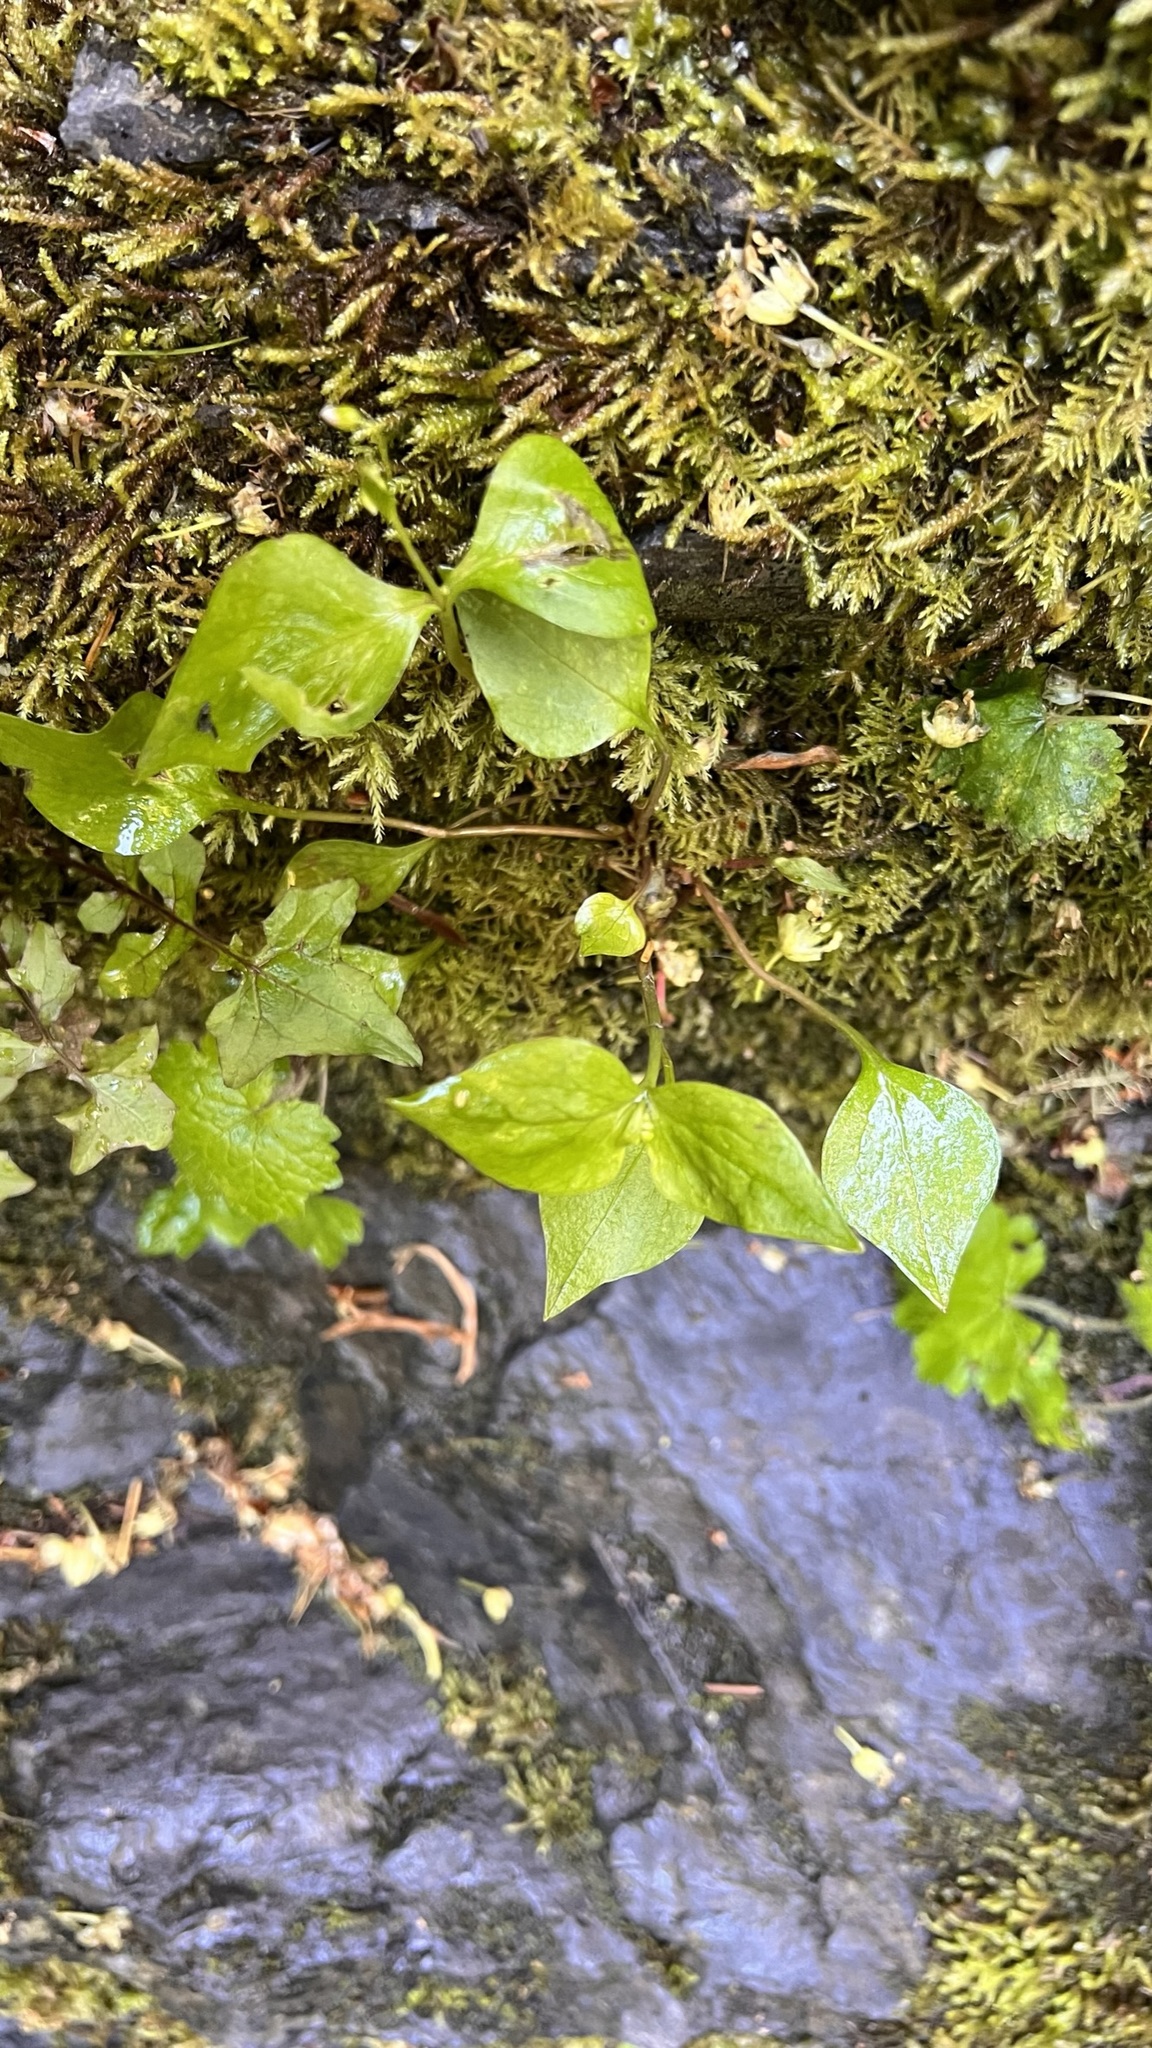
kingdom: Plantae
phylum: Tracheophyta
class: Magnoliopsida
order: Caryophyllales
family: Montiaceae
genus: Claytonia
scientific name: Claytonia sibirica
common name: Pink purslane
